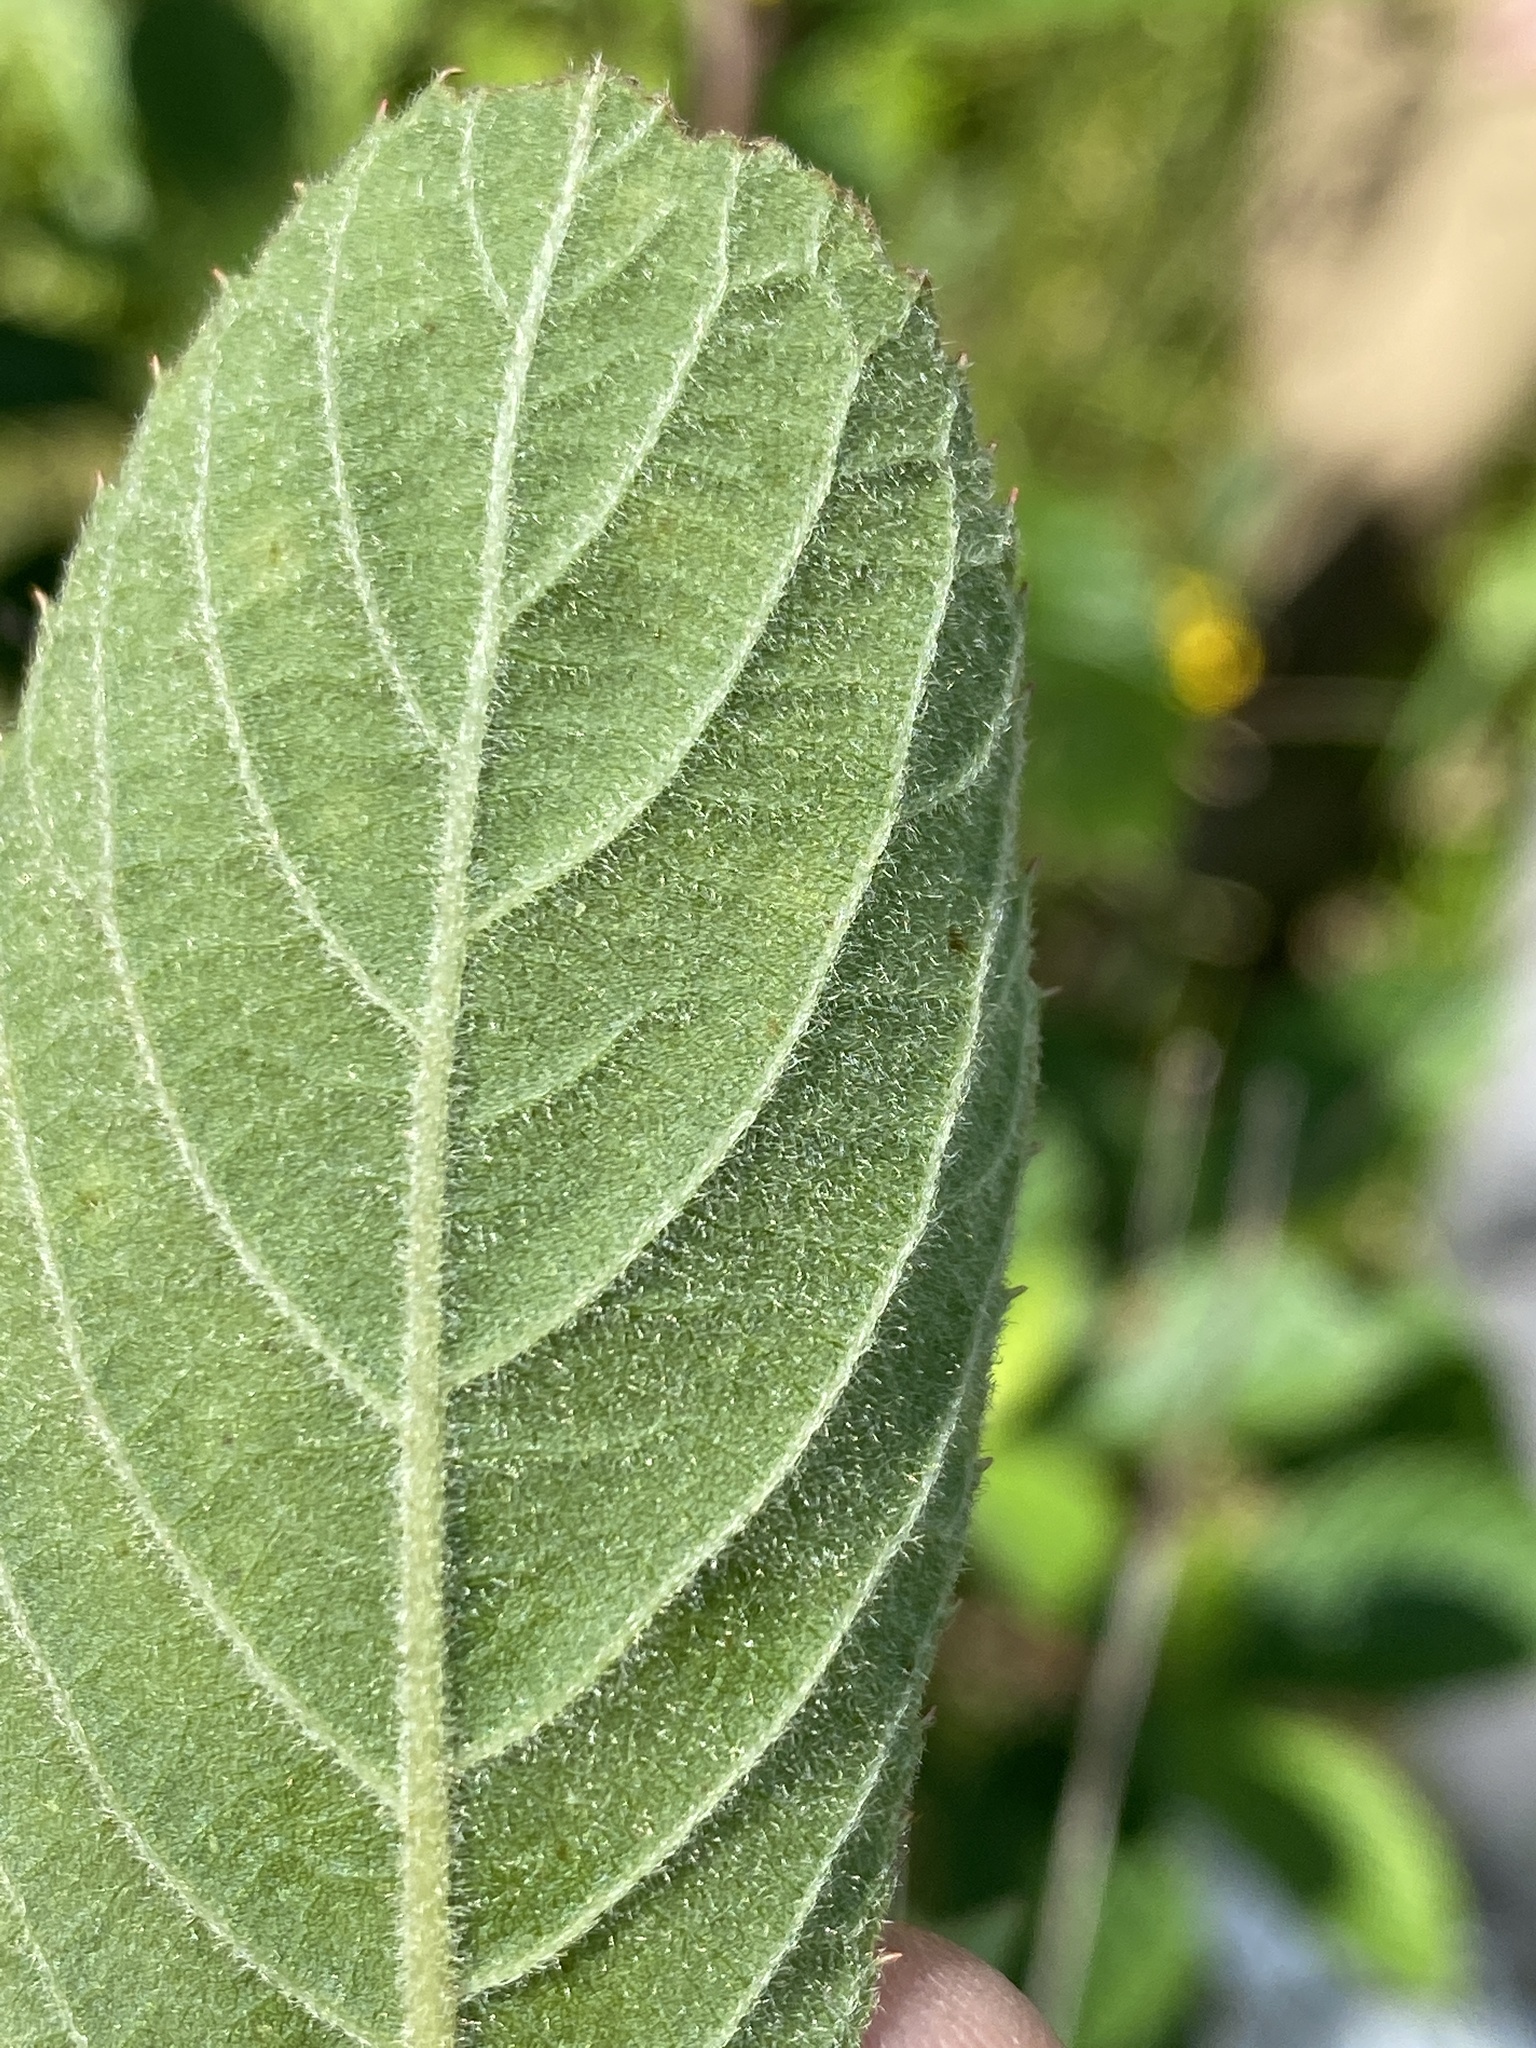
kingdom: Plantae
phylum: Tracheophyta
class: Magnoliopsida
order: Ericales
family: Clethraceae
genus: Clethra
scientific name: Clethra tomentosa
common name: Downy sweet pepperbush
